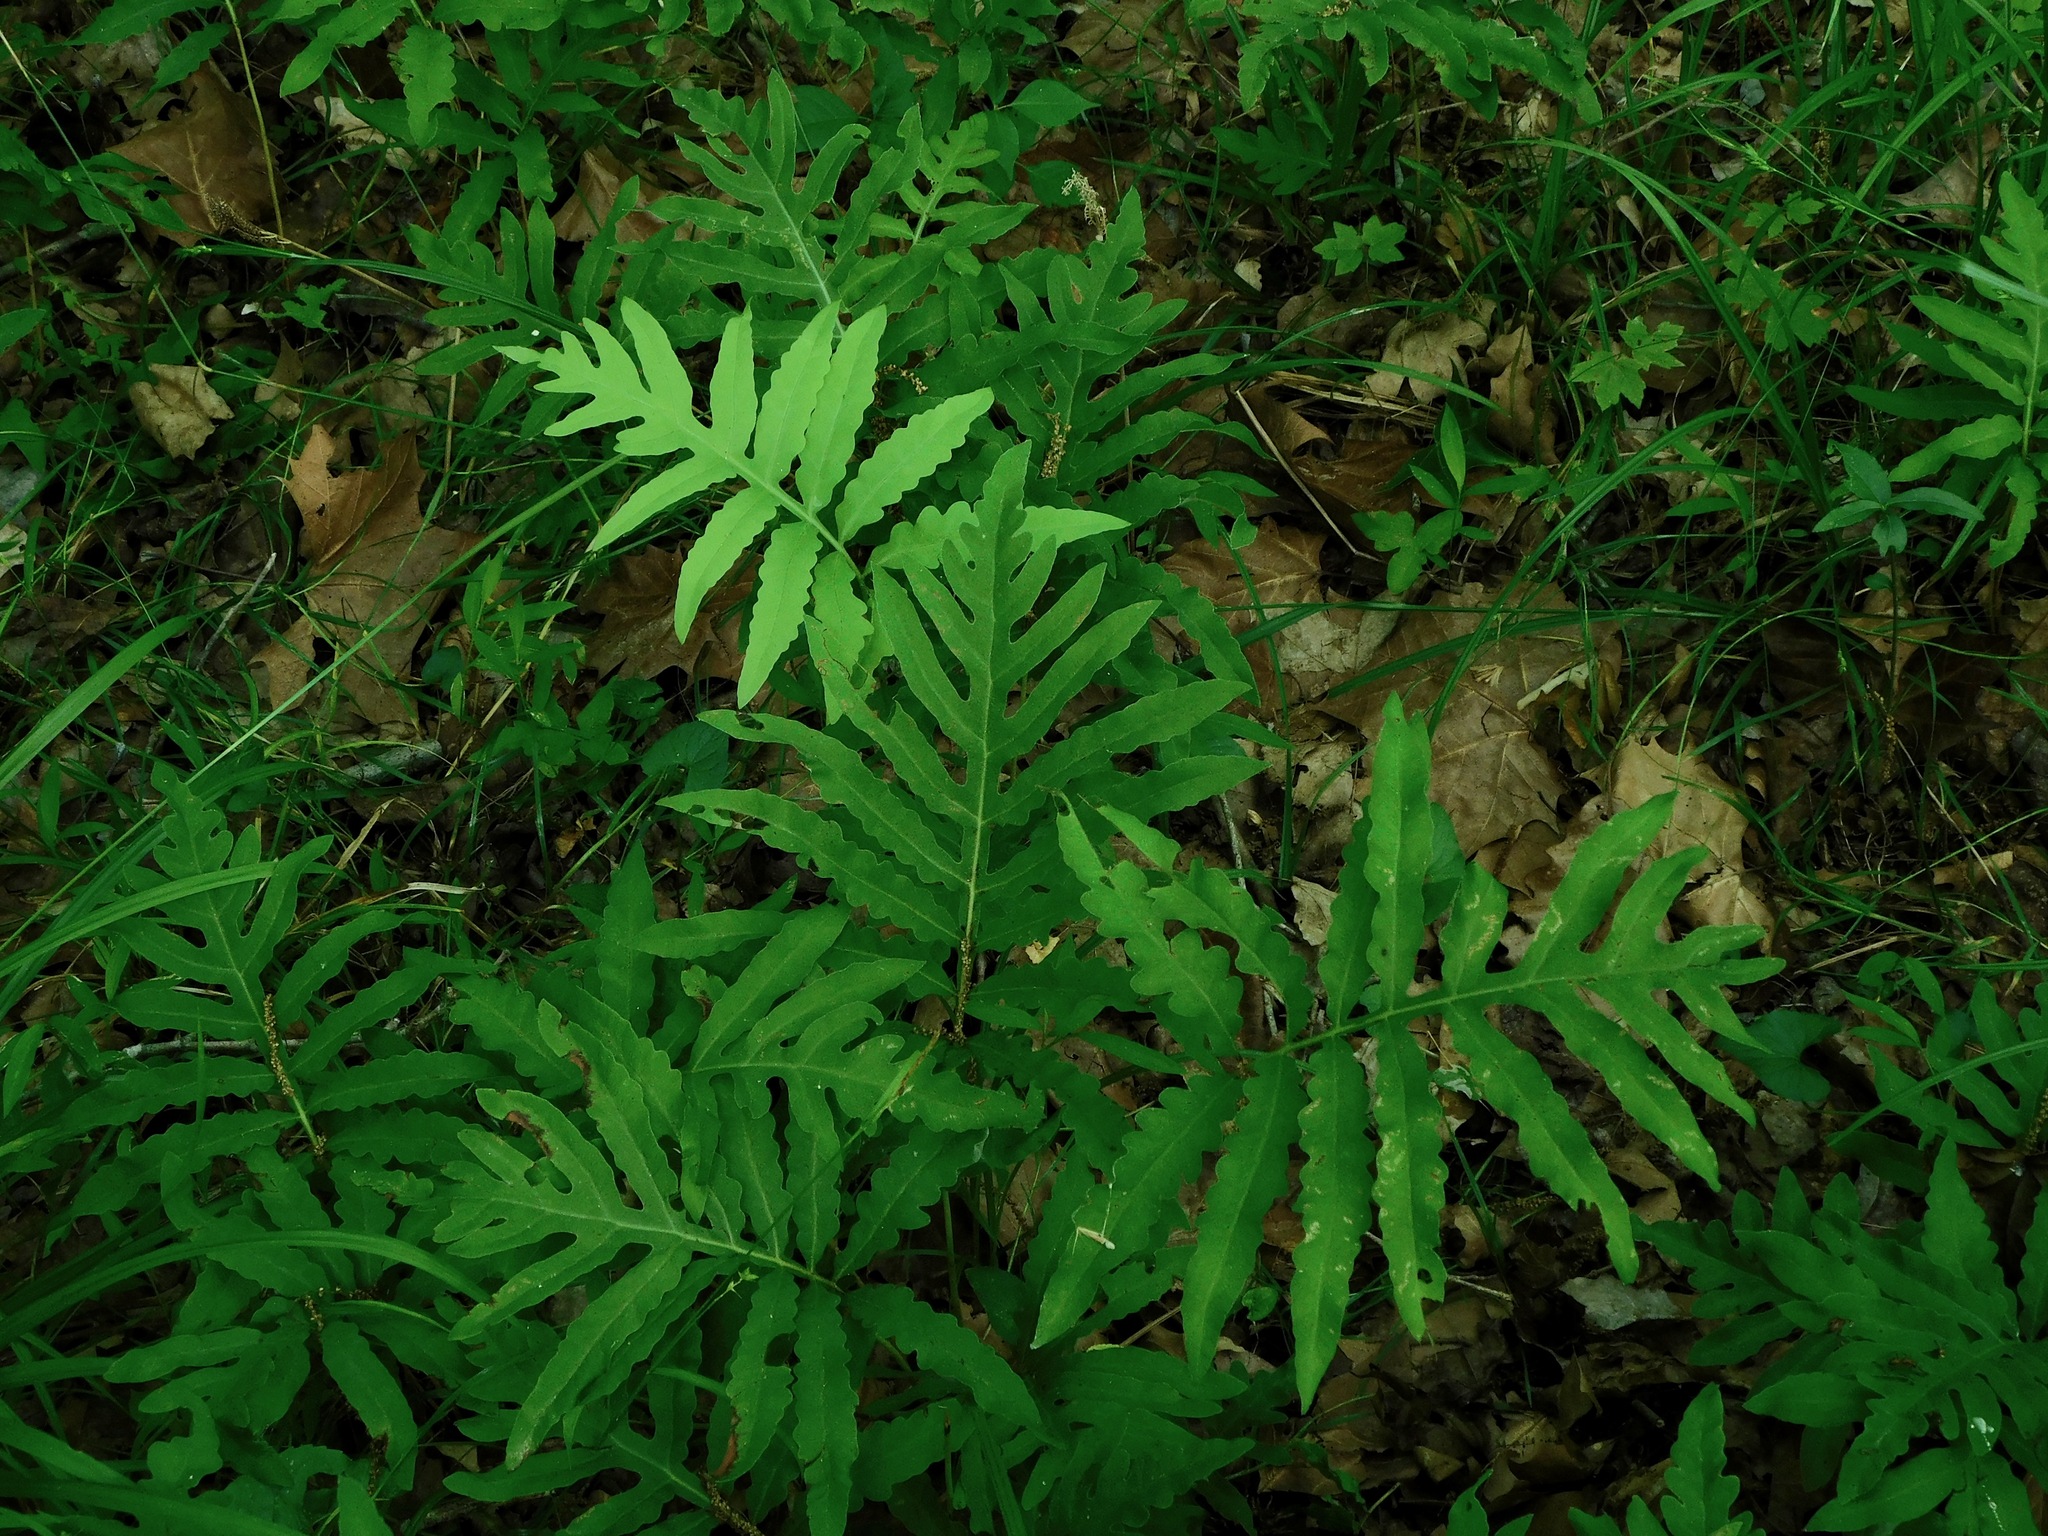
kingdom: Plantae
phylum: Tracheophyta
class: Polypodiopsida
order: Polypodiales
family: Onocleaceae
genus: Onoclea
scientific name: Onoclea sensibilis
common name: Sensitive fern
